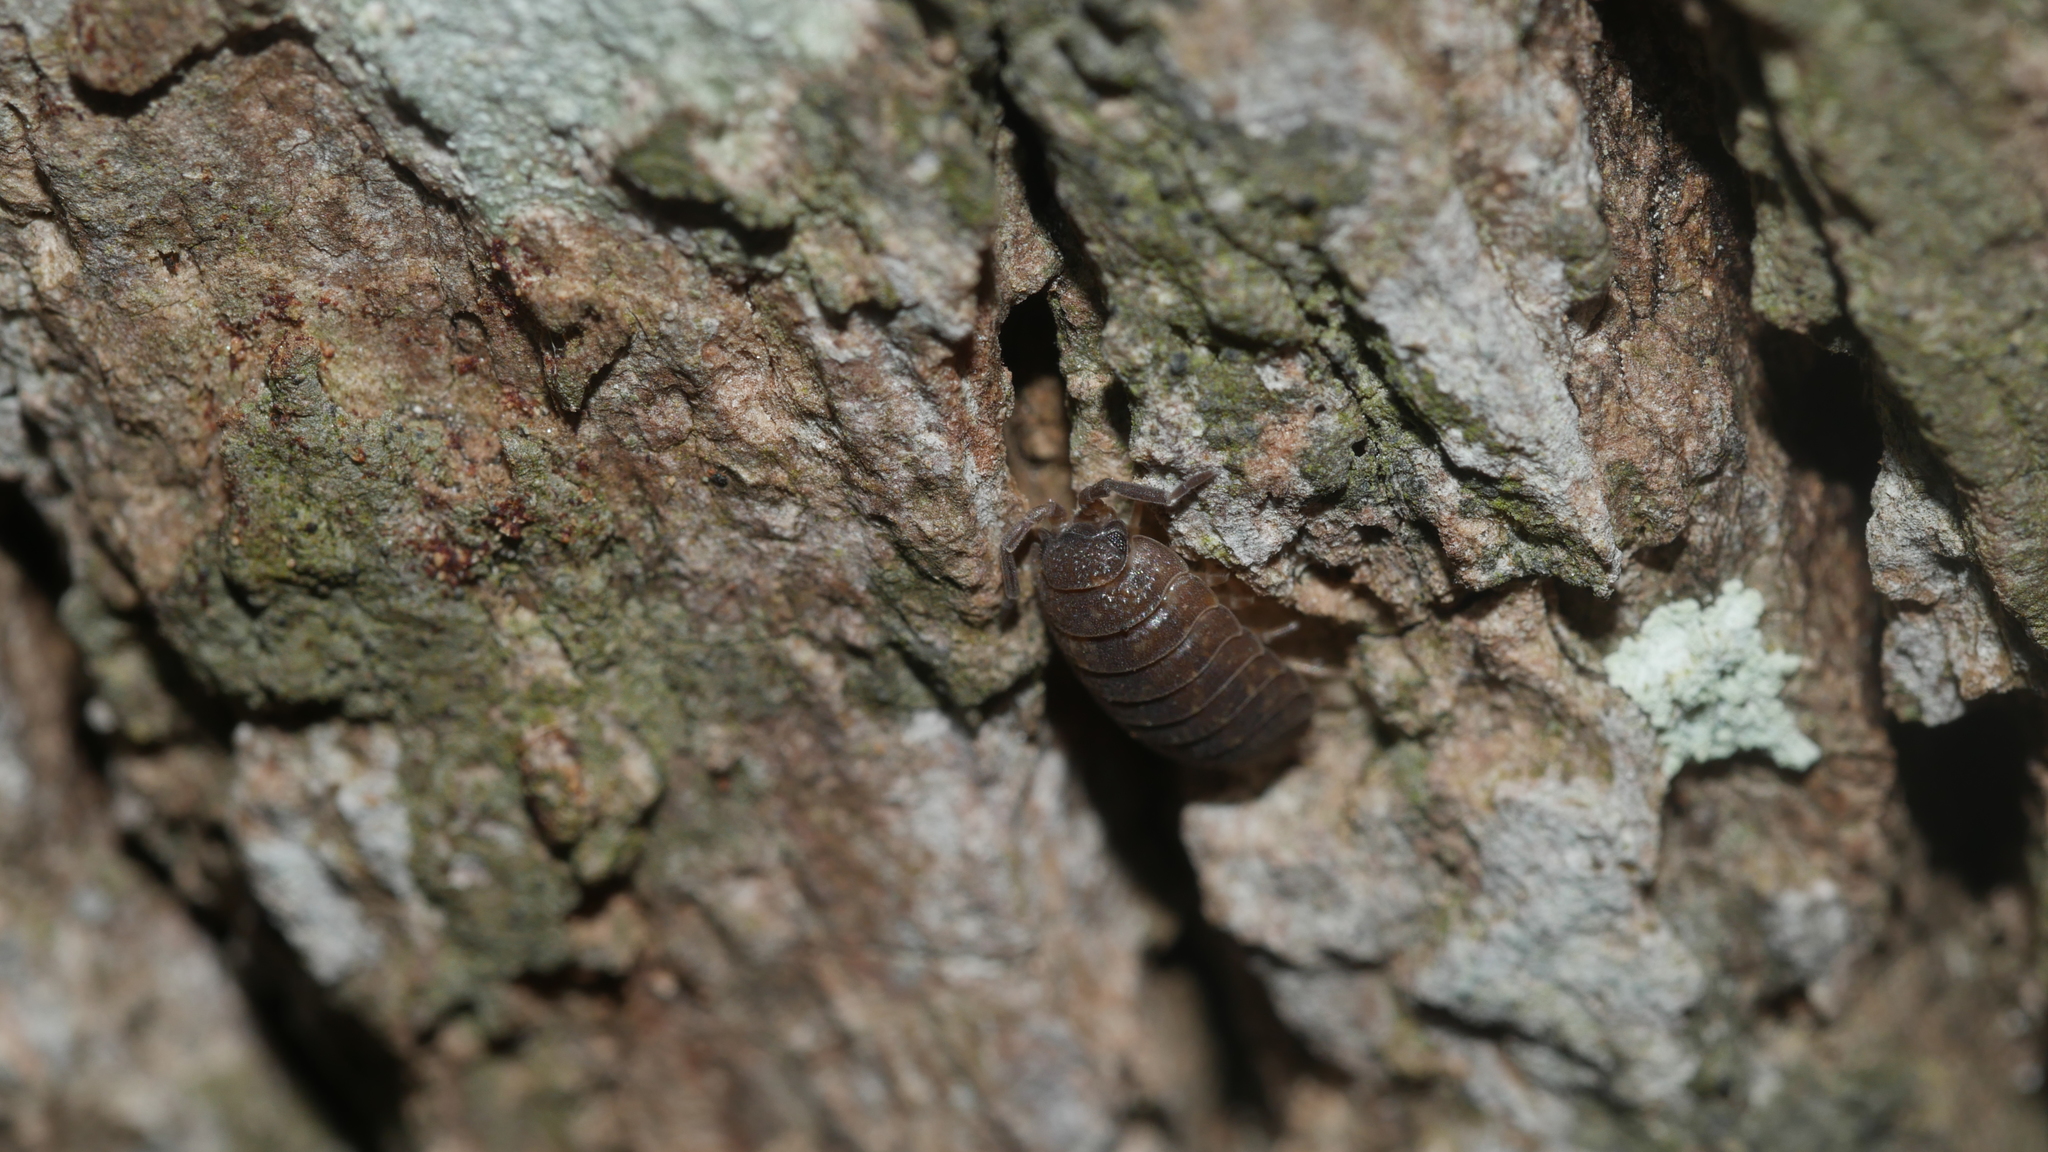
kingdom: Animalia
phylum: Arthropoda
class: Malacostraca
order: Isopoda
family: Porcellionidae
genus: Porcellio
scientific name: Porcellio scaber
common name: Common rough woodlouse
